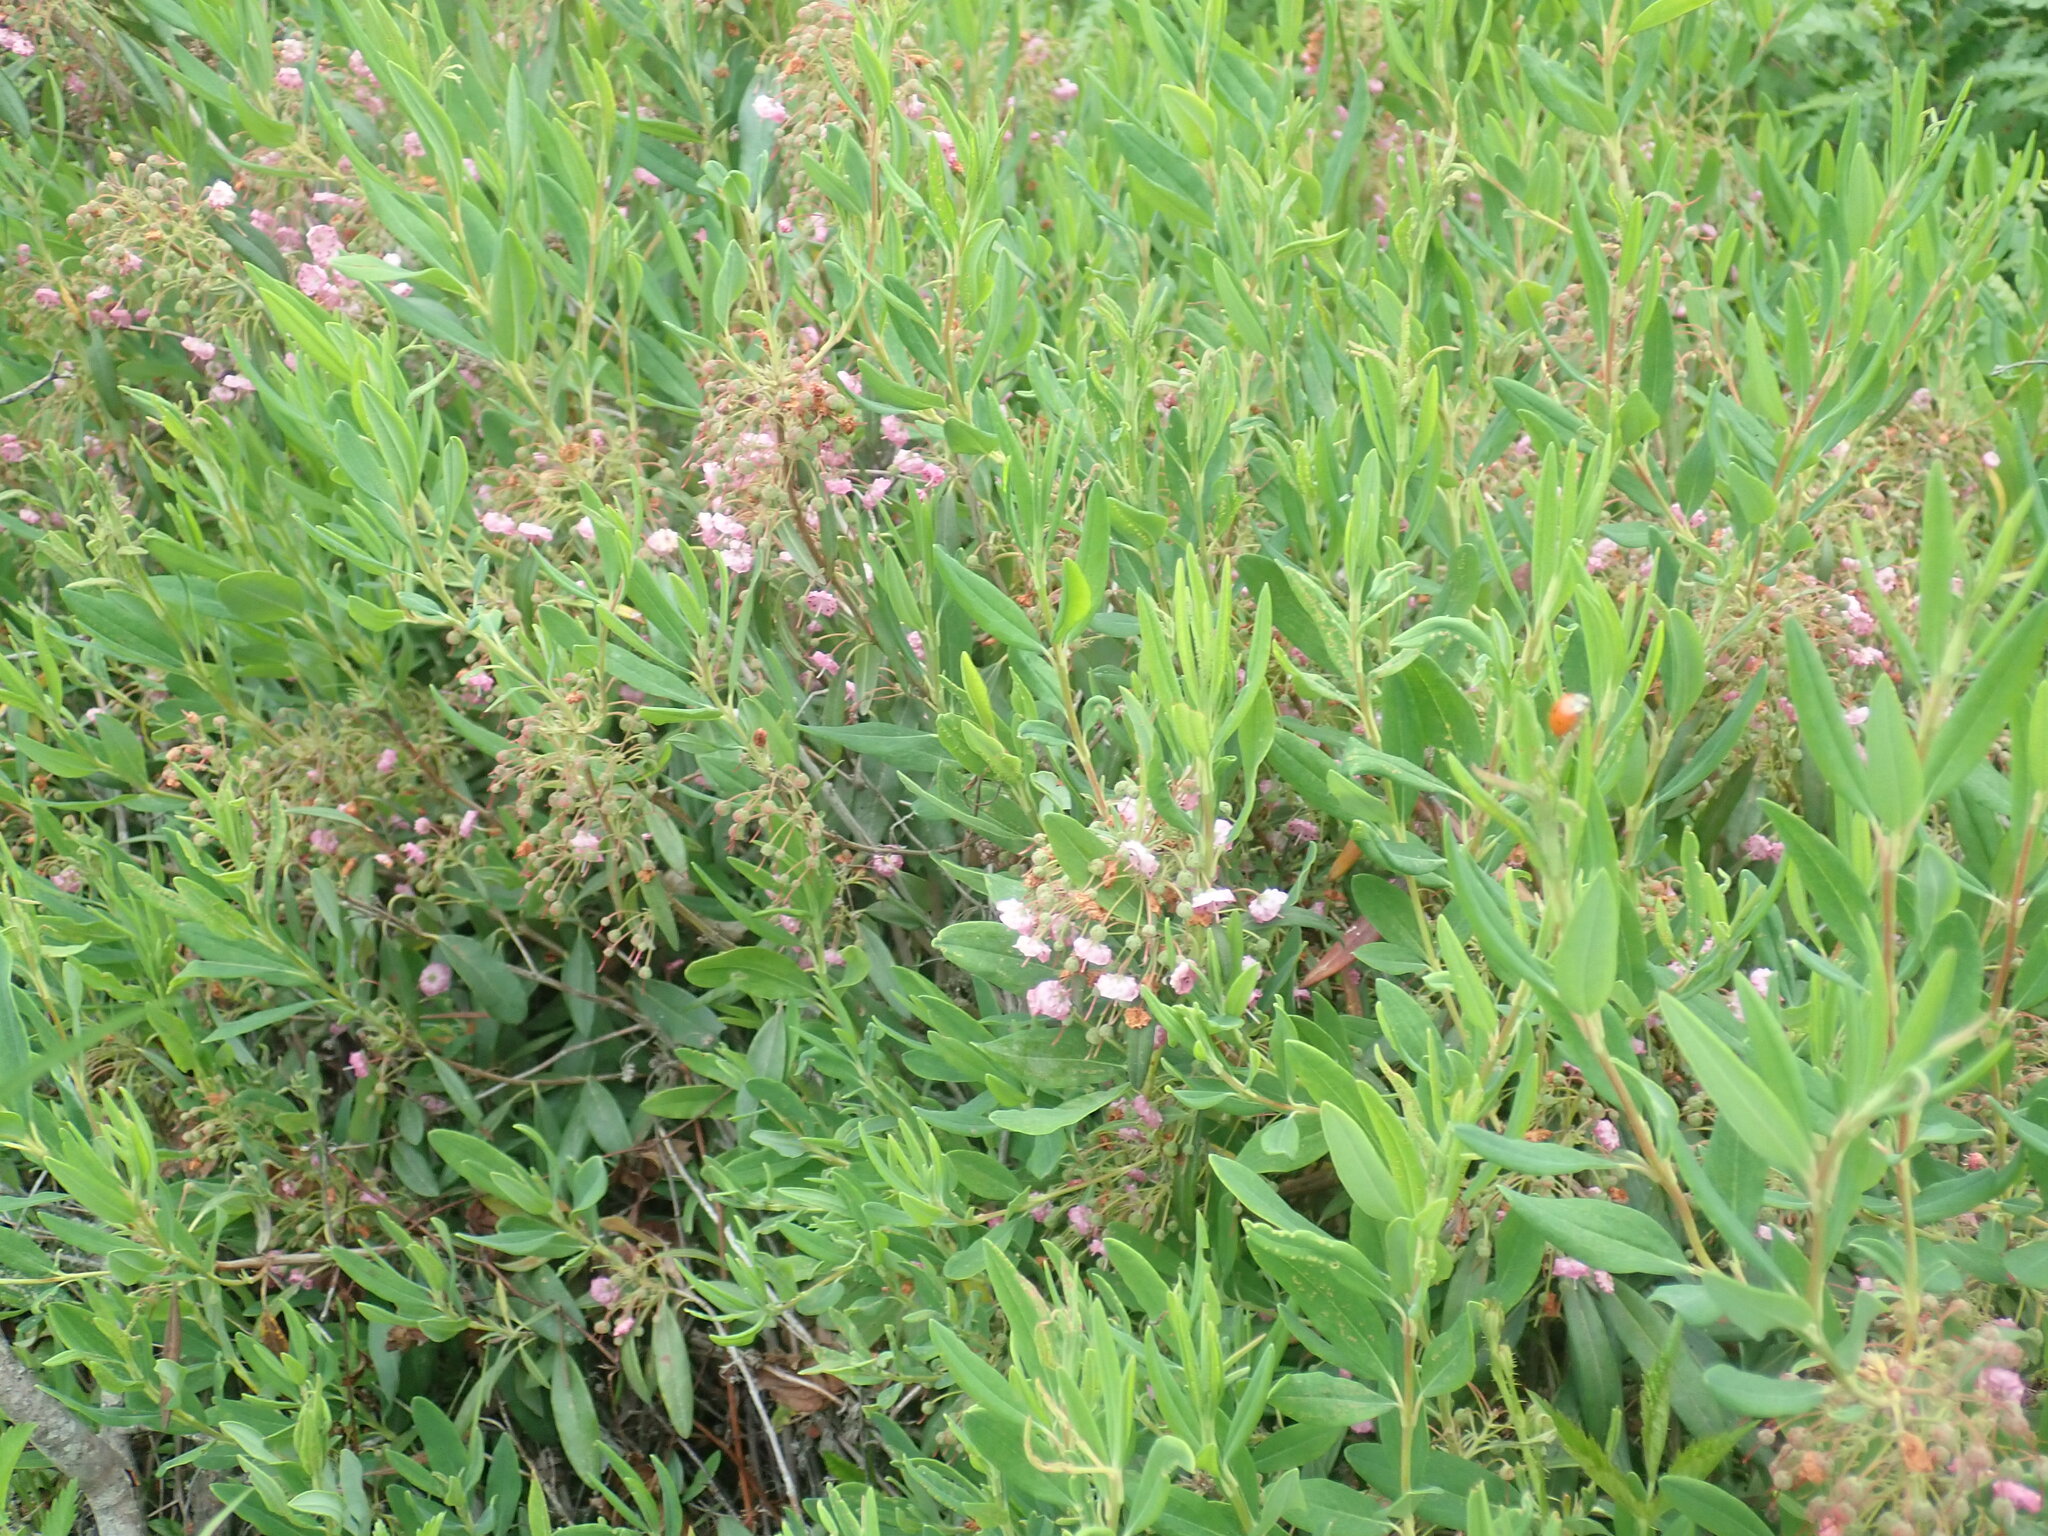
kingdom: Plantae
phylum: Tracheophyta
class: Magnoliopsida
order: Ericales
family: Ericaceae
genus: Kalmia
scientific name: Kalmia angustifolia
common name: Sheep-laurel
